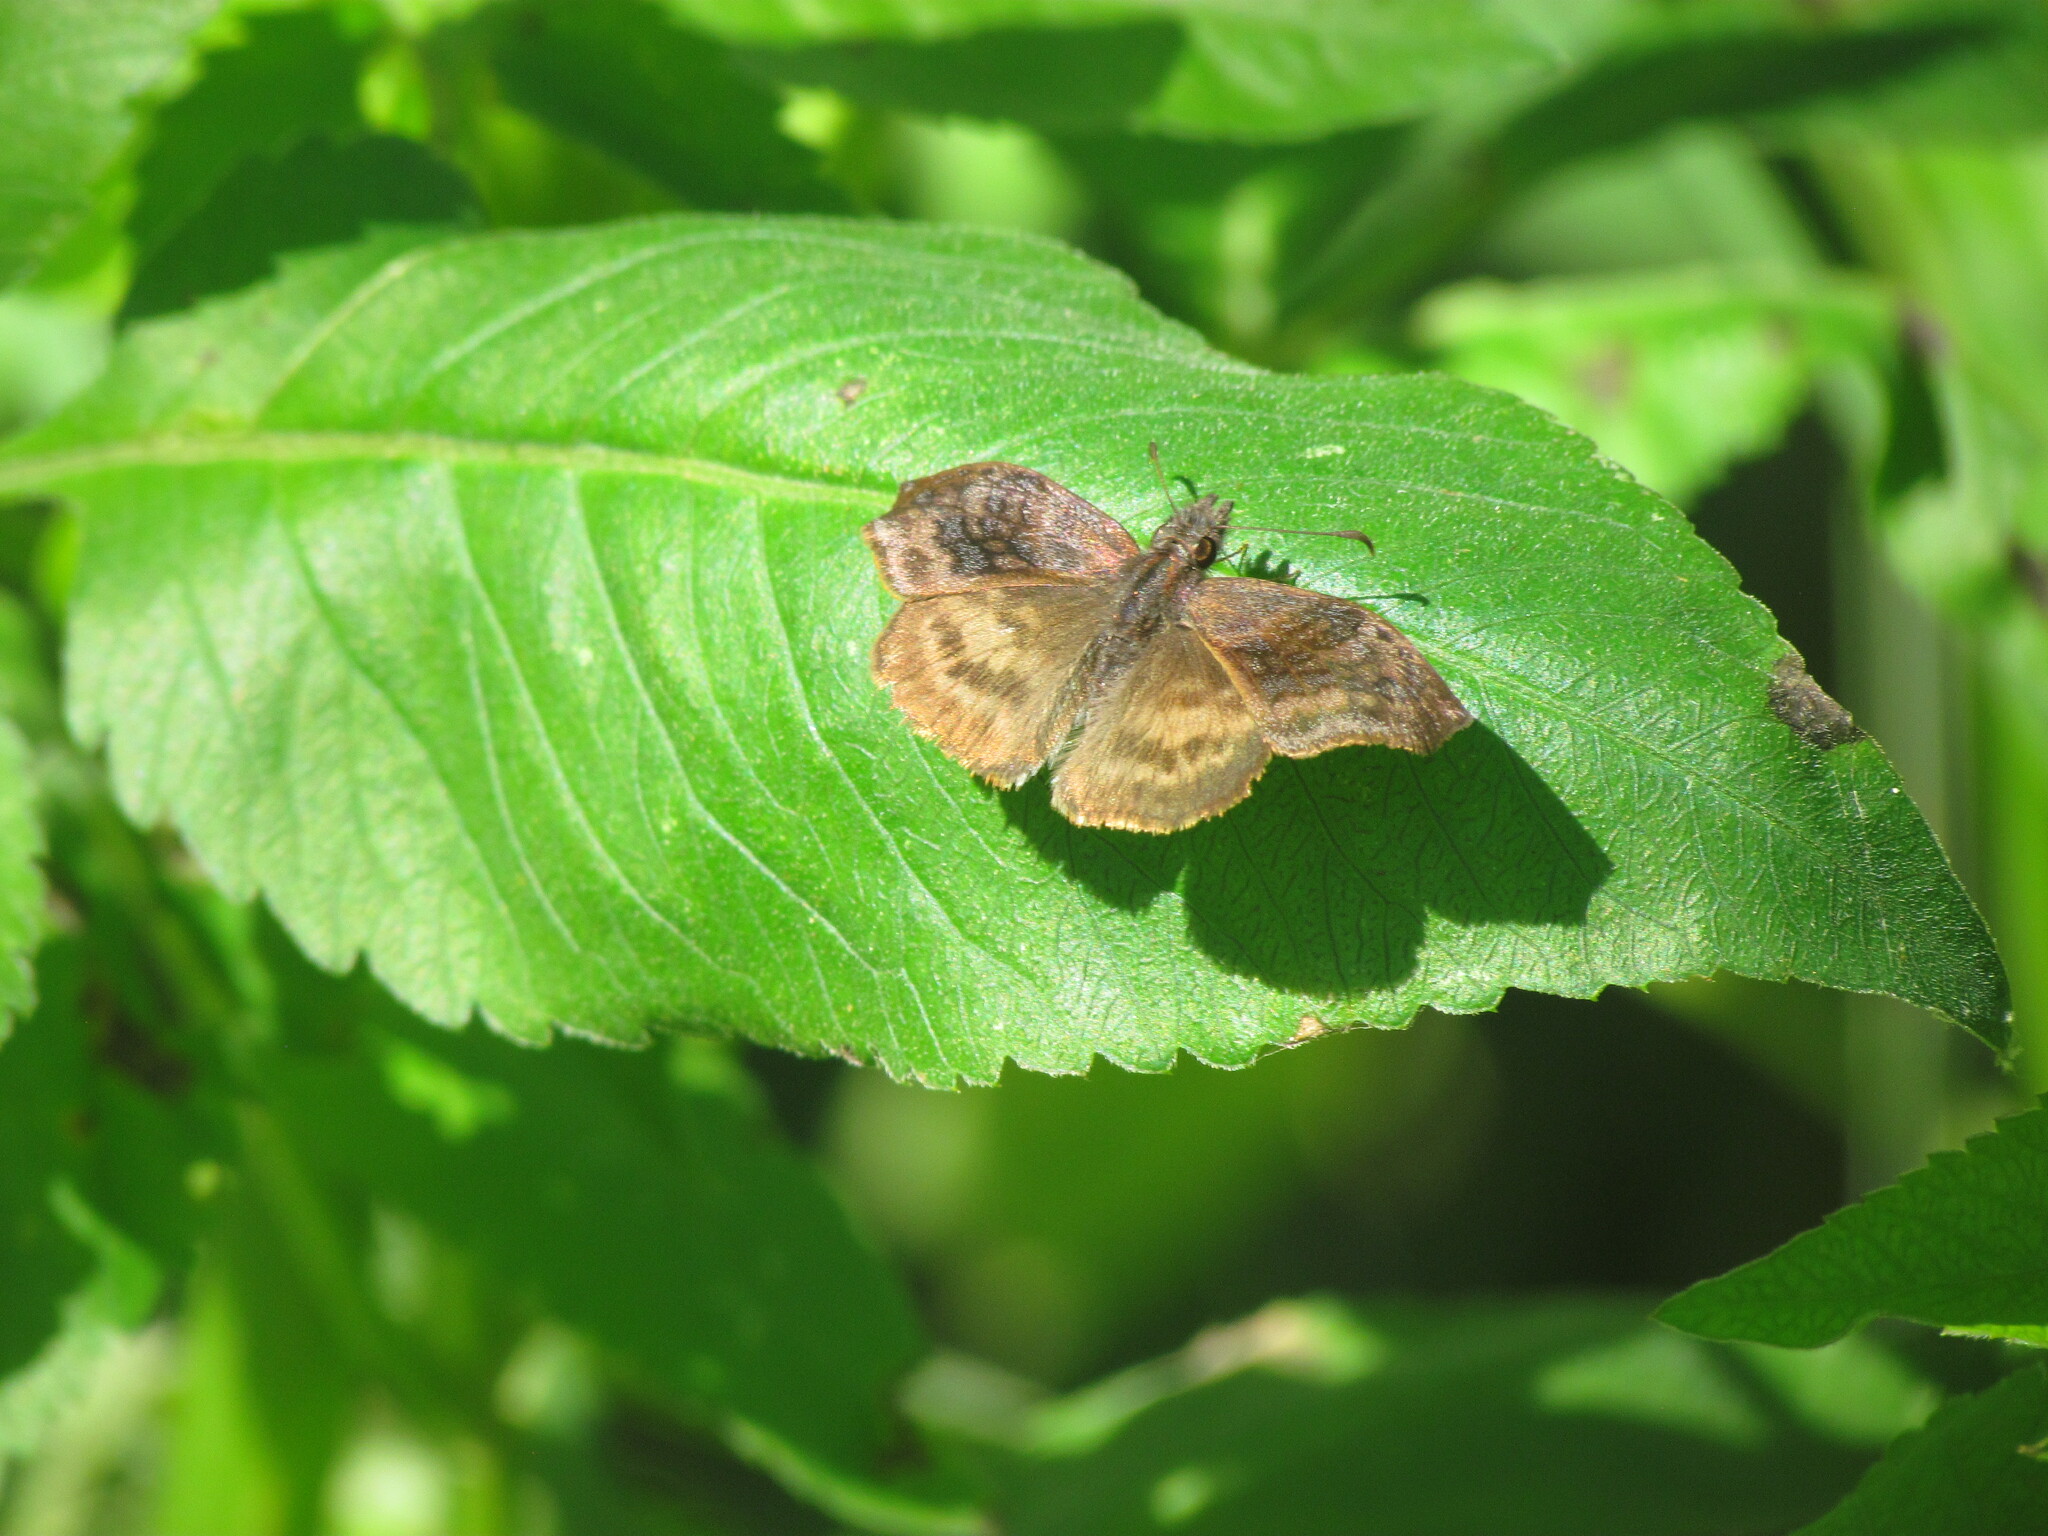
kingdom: Animalia
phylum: Arthropoda
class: Insecta
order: Lepidoptera
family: Hesperiidae
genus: Theagenes
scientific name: Theagenes dichrous
